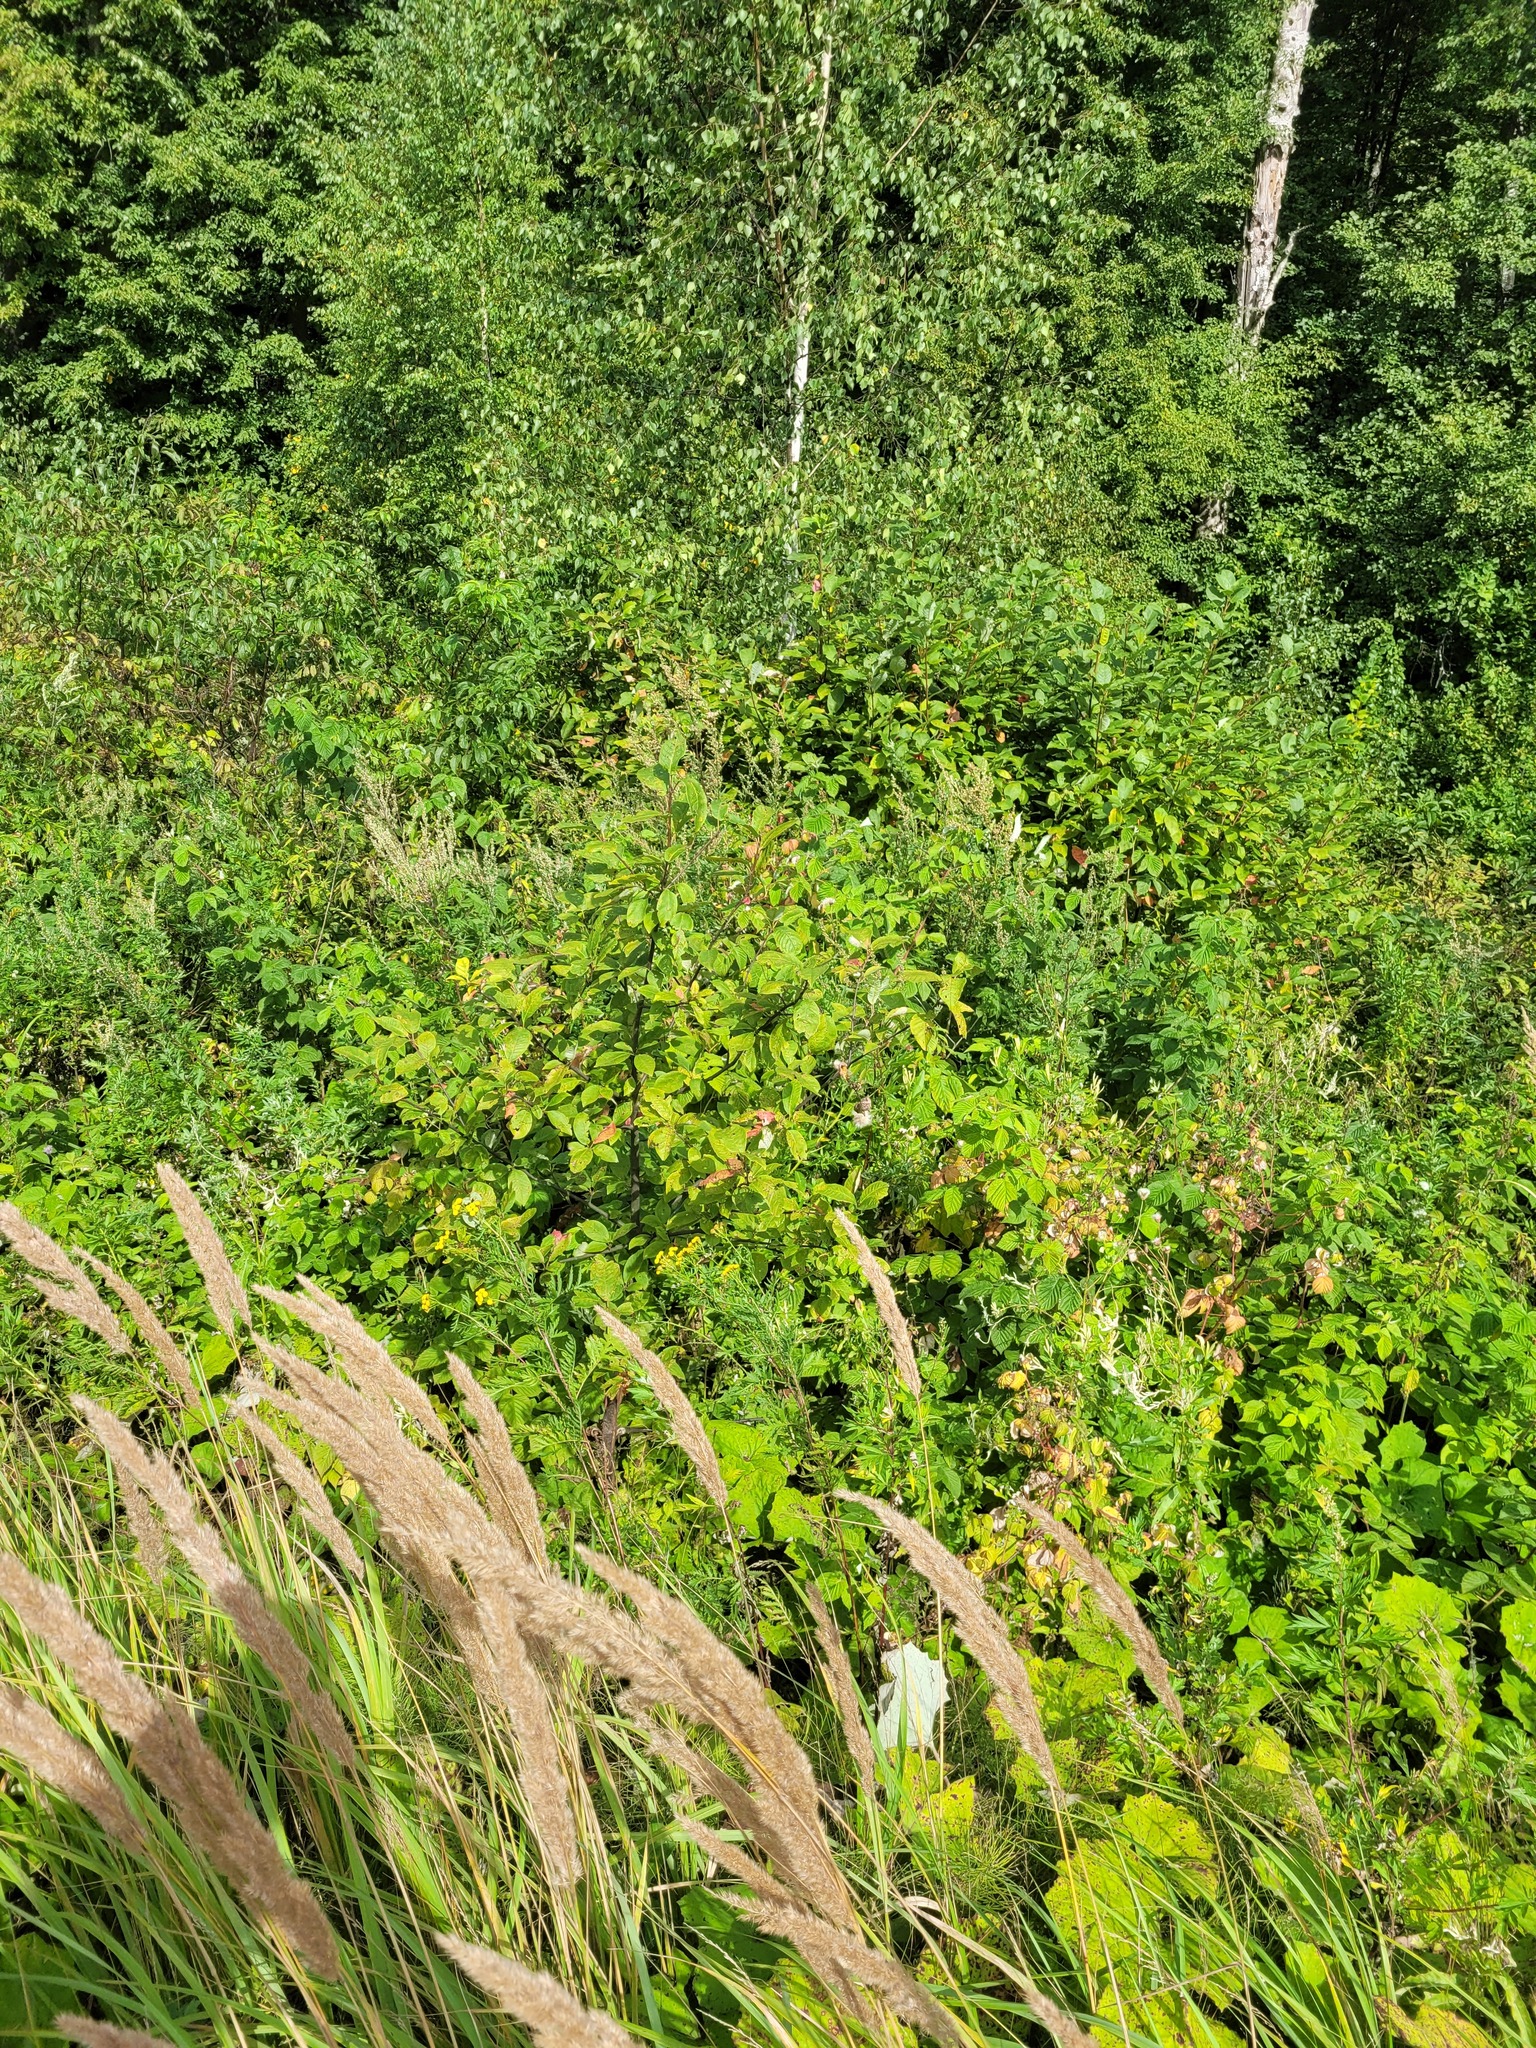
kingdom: Plantae
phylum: Tracheophyta
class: Magnoliopsida
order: Rosales
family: Rosaceae
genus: Prunus
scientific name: Prunus padus
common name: Bird cherry
